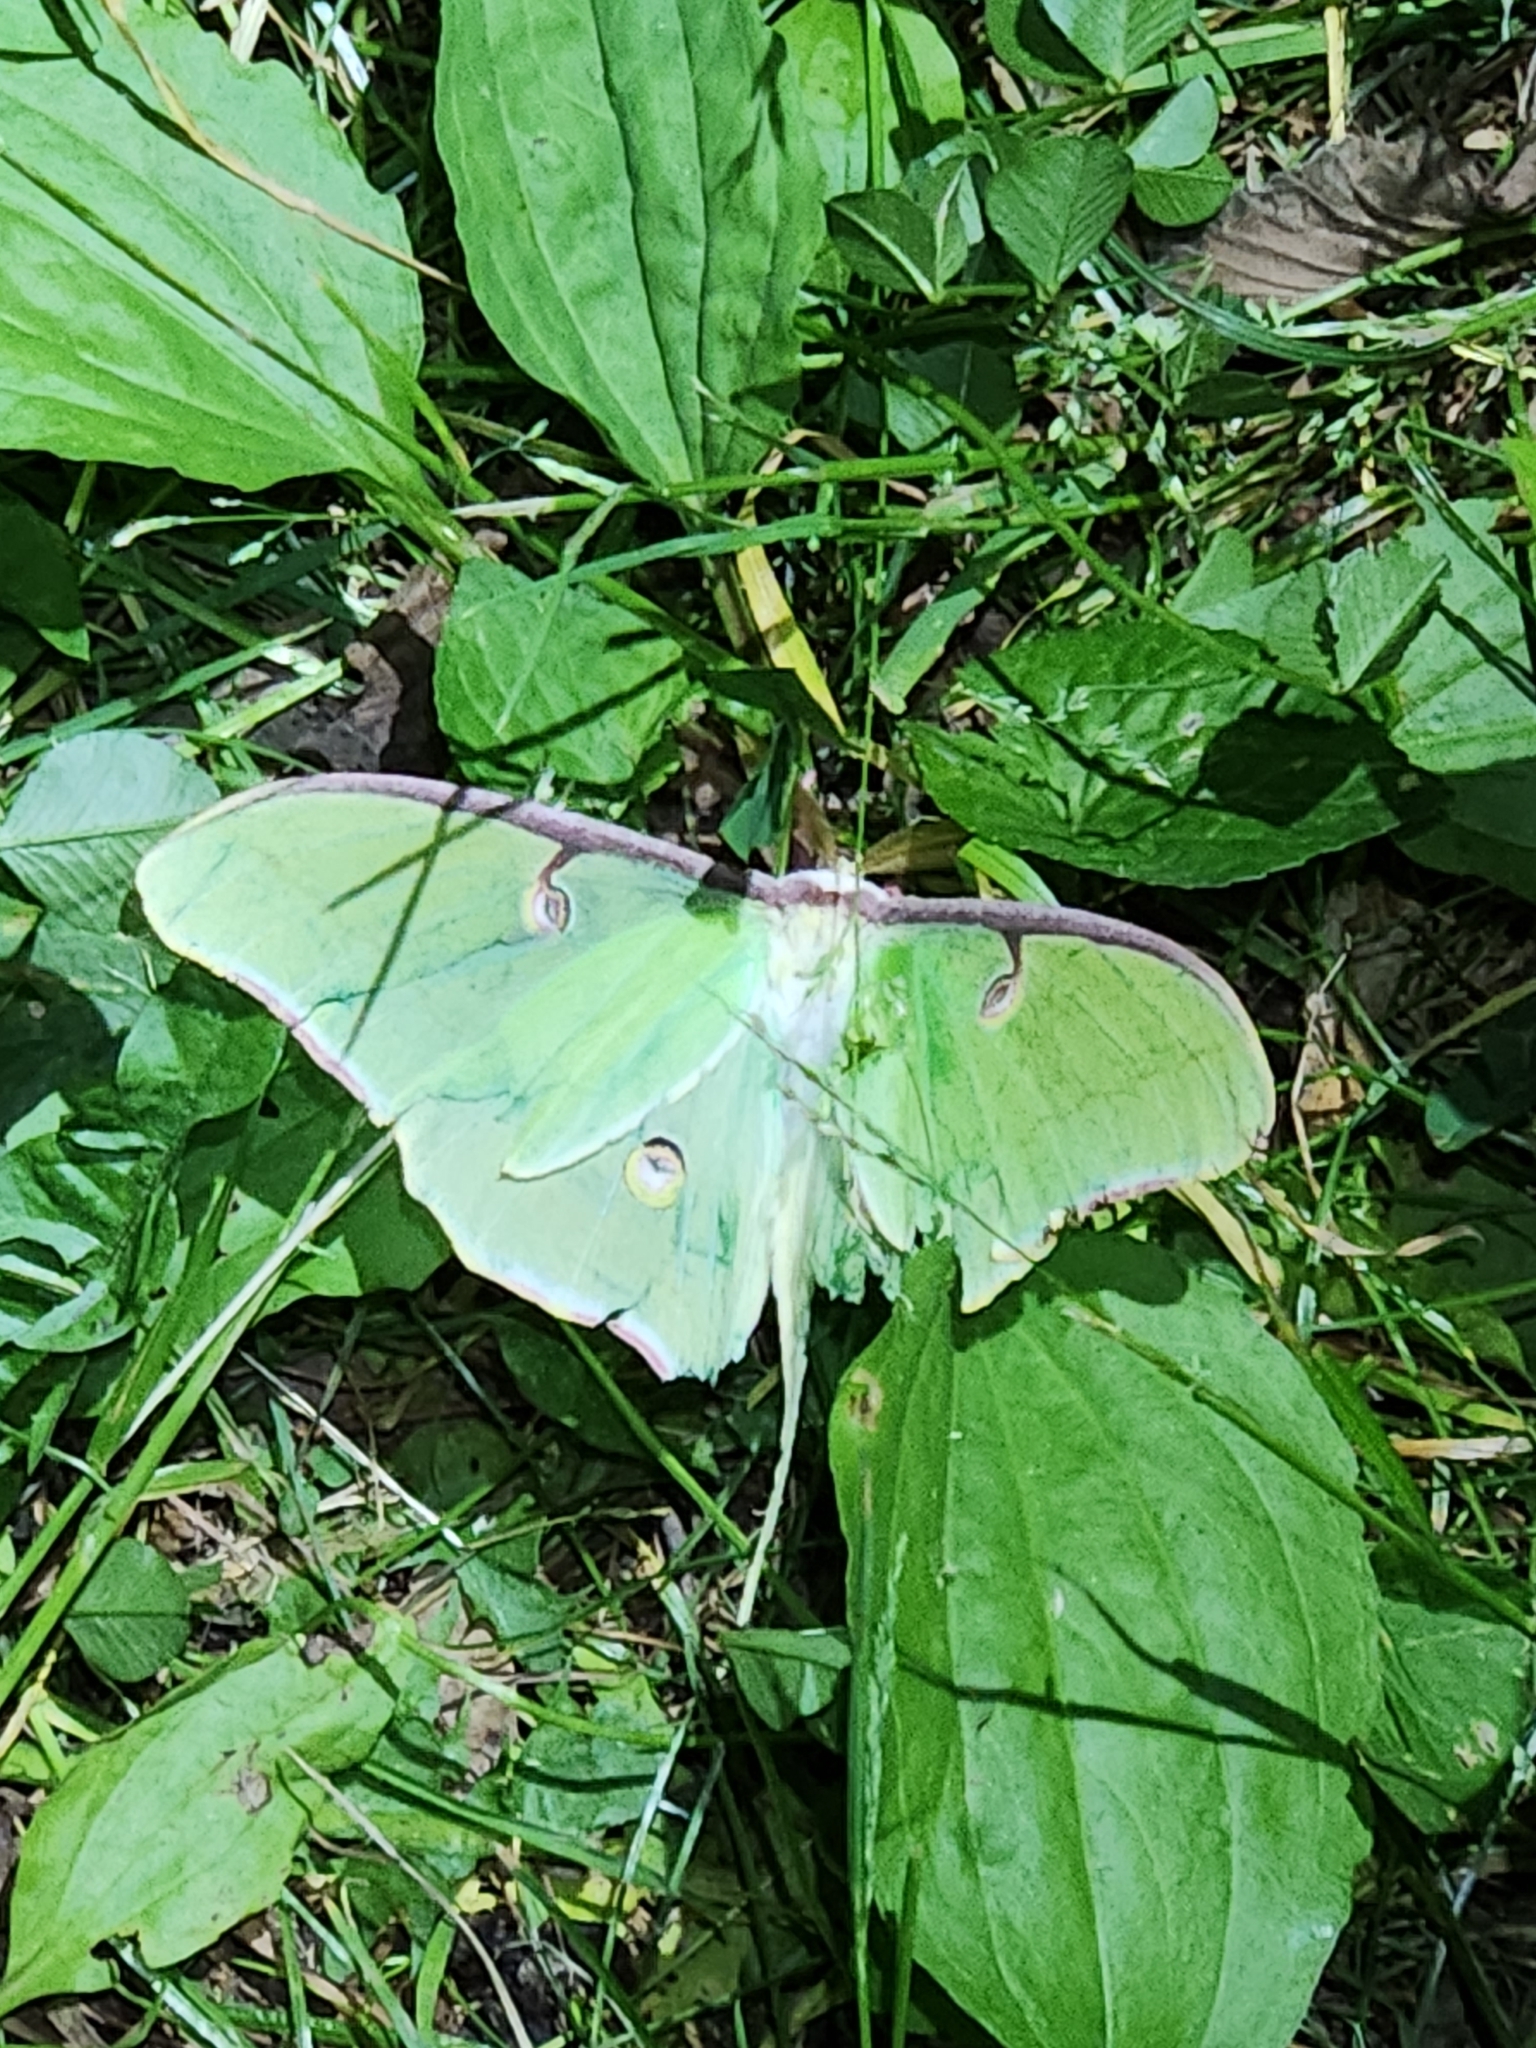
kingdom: Animalia
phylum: Arthropoda
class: Insecta
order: Lepidoptera
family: Saturniidae
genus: Actias
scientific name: Actias luna
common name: Luna moth
